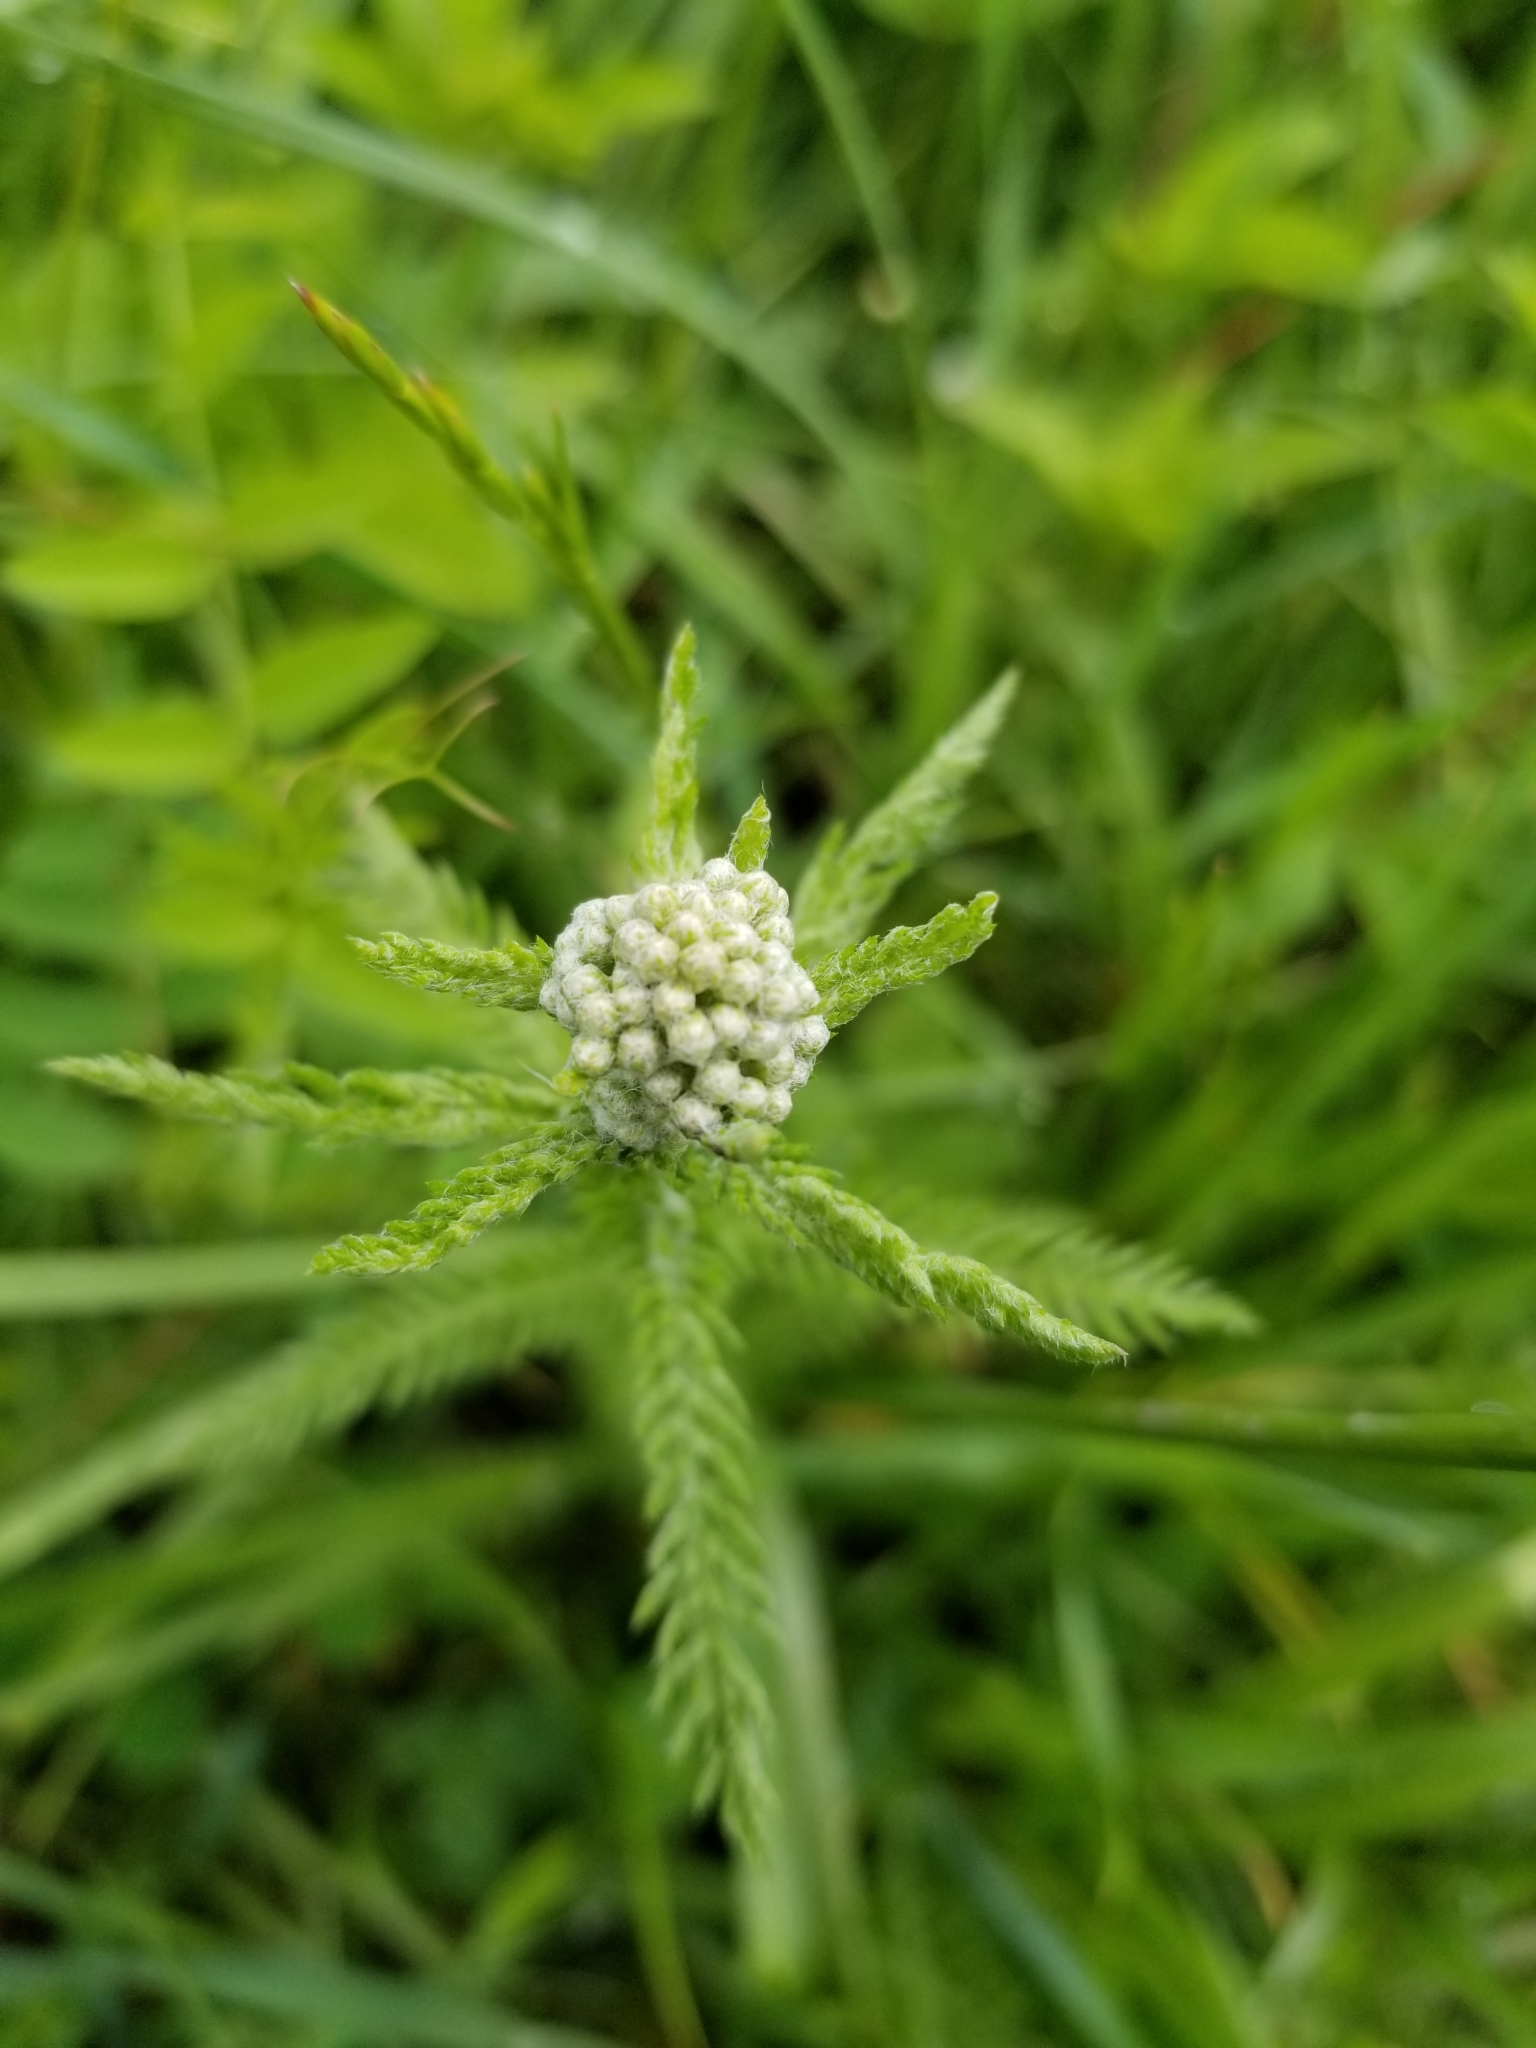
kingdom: Plantae
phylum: Tracheophyta
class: Magnoliopsida
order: Asterales
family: Asteraceae
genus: Achillea
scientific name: Achillea millefolium
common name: Yarrow
